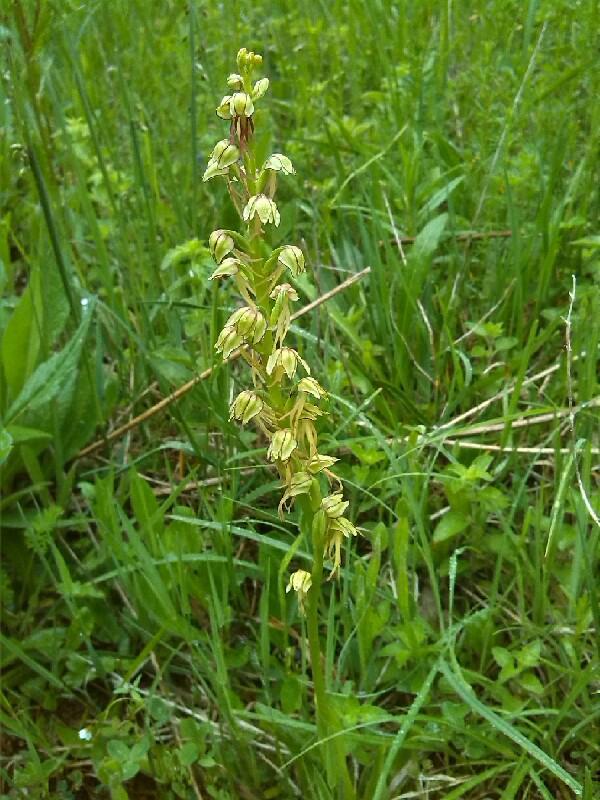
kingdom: Plantae
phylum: Tracheophyta
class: Liliopsida
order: Asparagales
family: Orchidaceae
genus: Orchis
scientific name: Orchis anthropophora
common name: Man orchid
